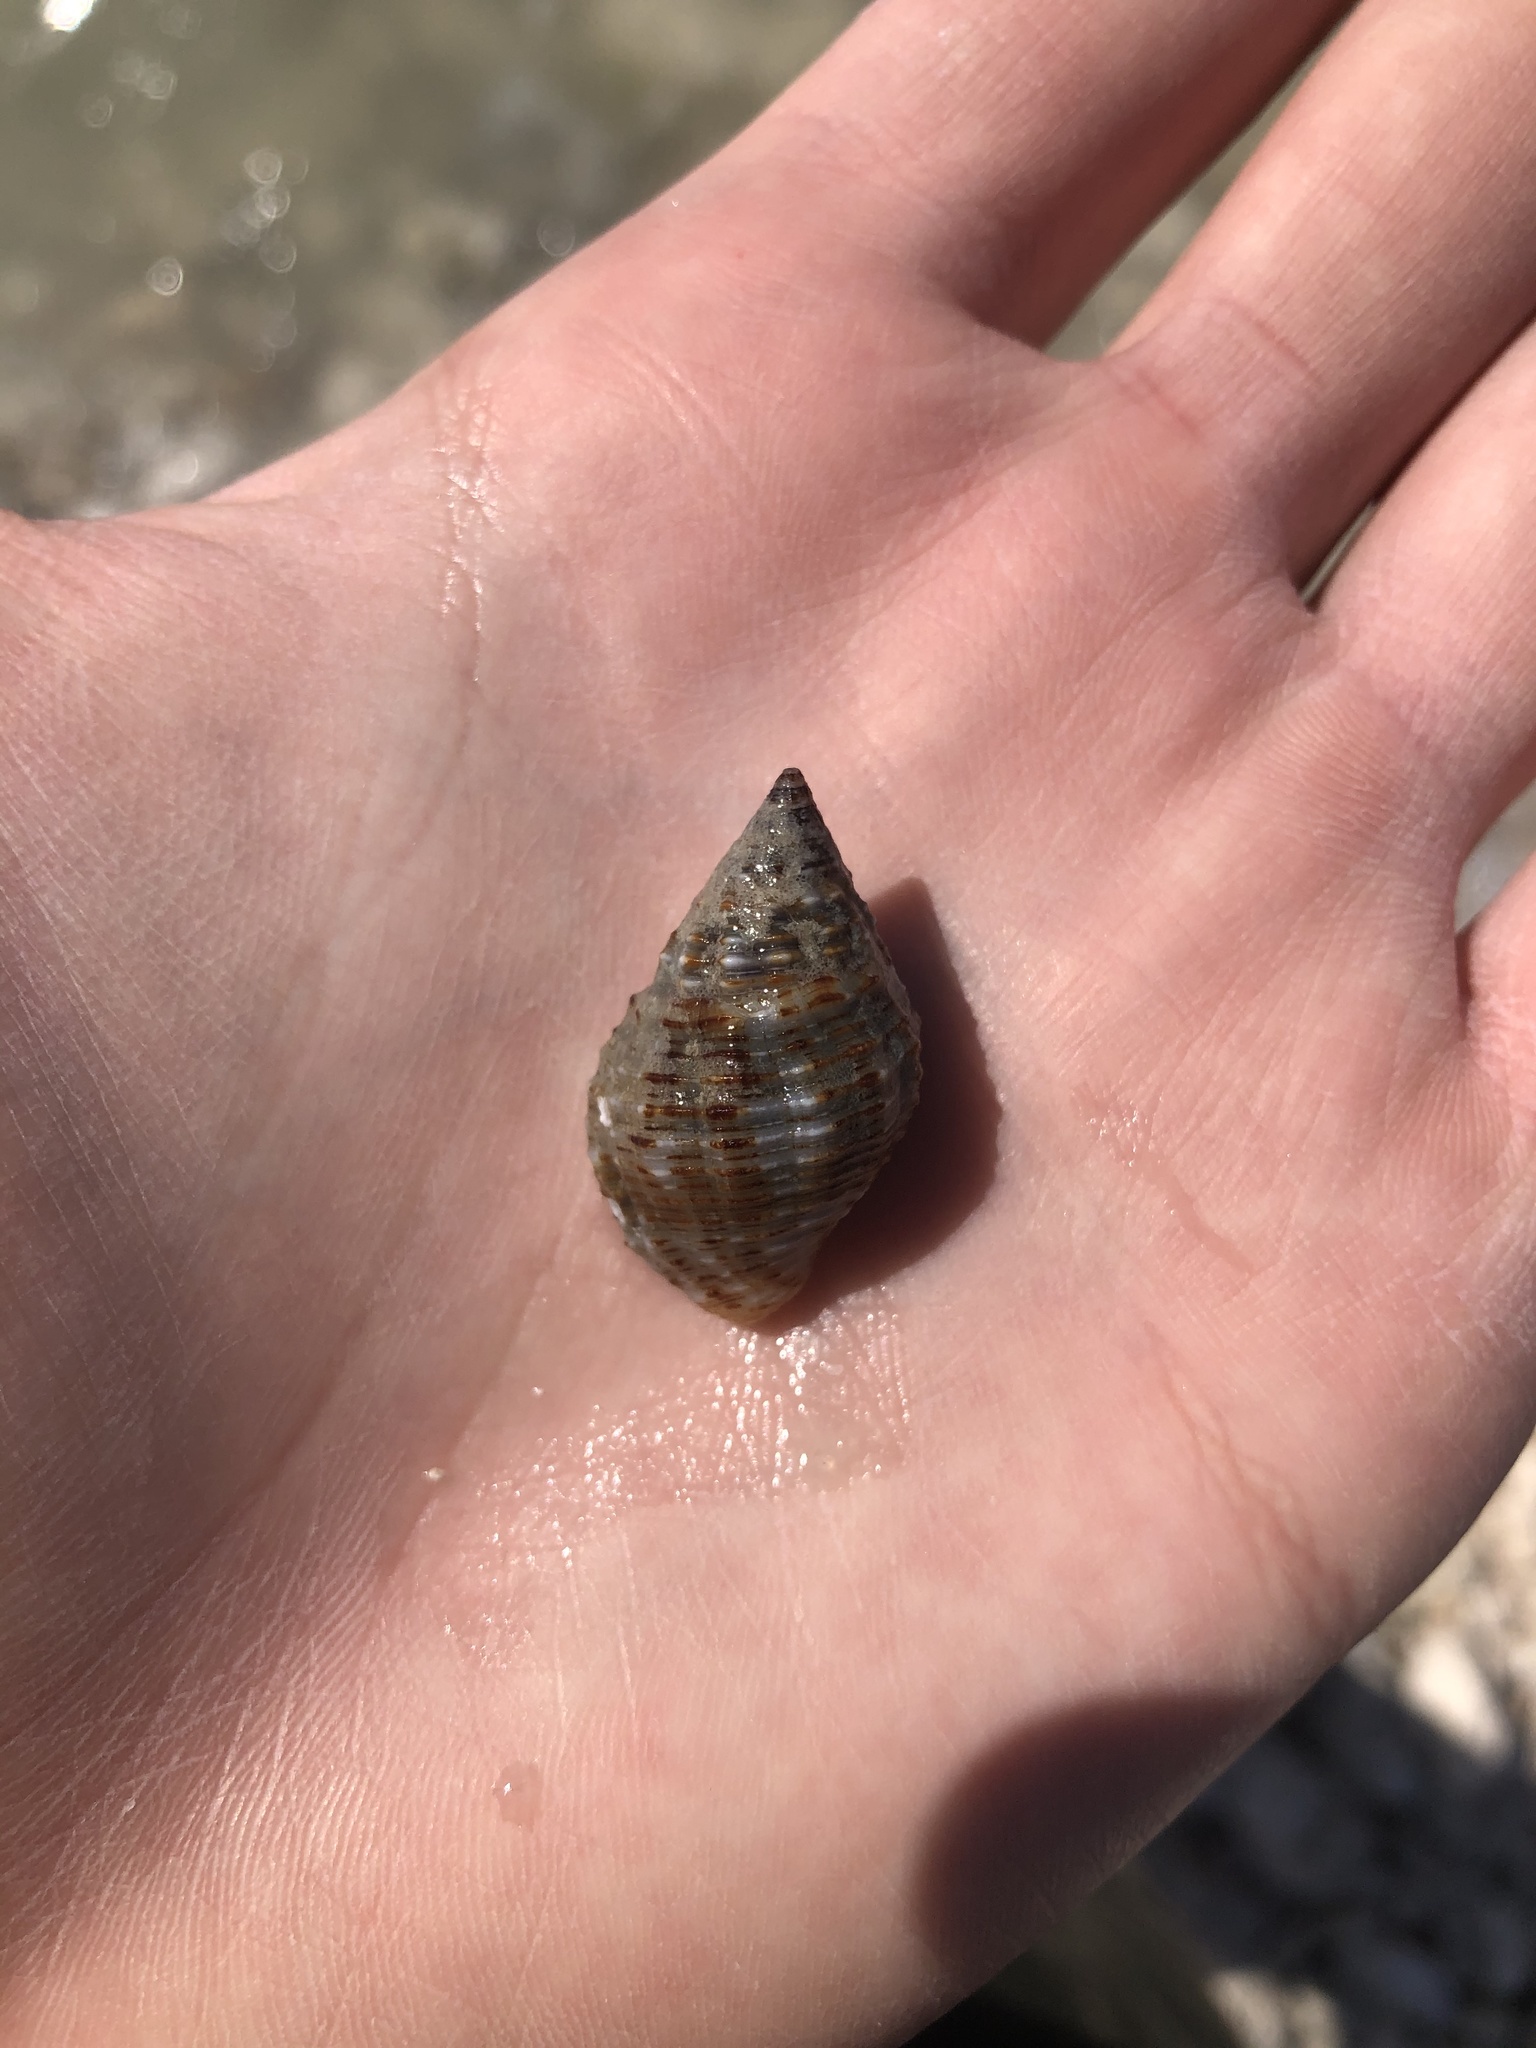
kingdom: Animalia
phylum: Mollusca
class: Gastropoda
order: Neogastropoda
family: Pisaniidae
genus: Gemophos
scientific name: Gemophos tinctus
